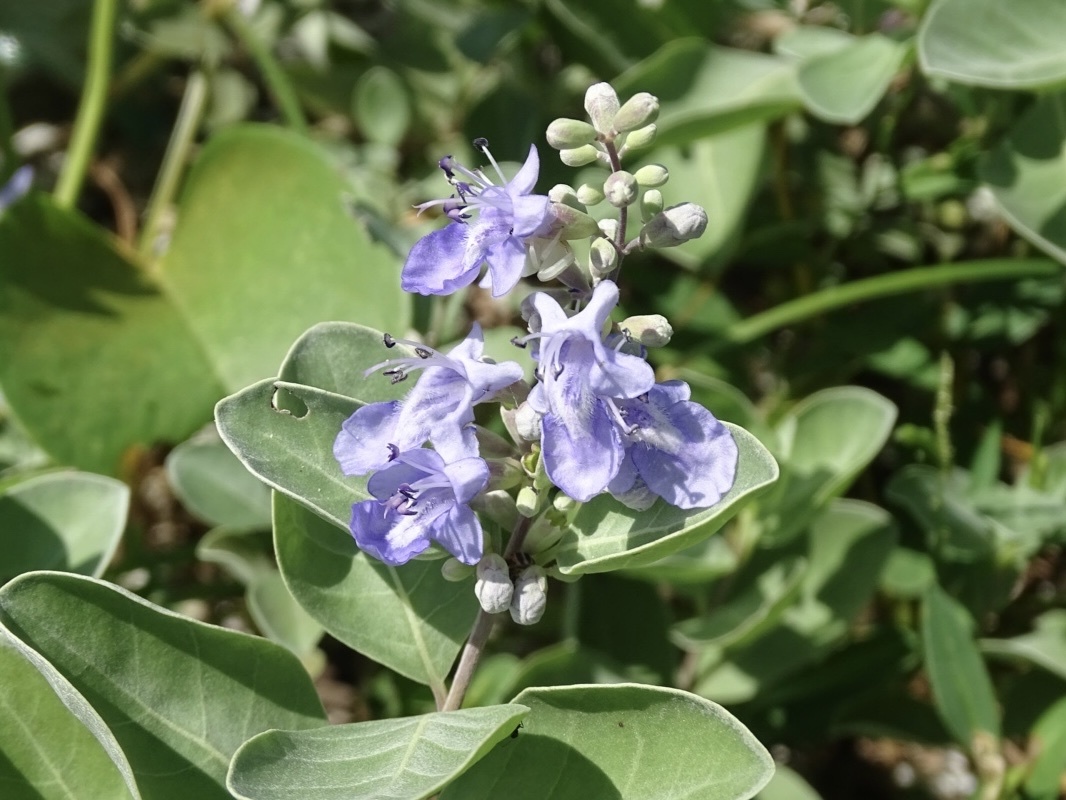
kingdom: Plantae
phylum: Tracheophyta
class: Magnoliopsida
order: Lamiales
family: Lamiaceae
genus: Vitex
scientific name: Vitex rotundifolia
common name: Beach vitex
